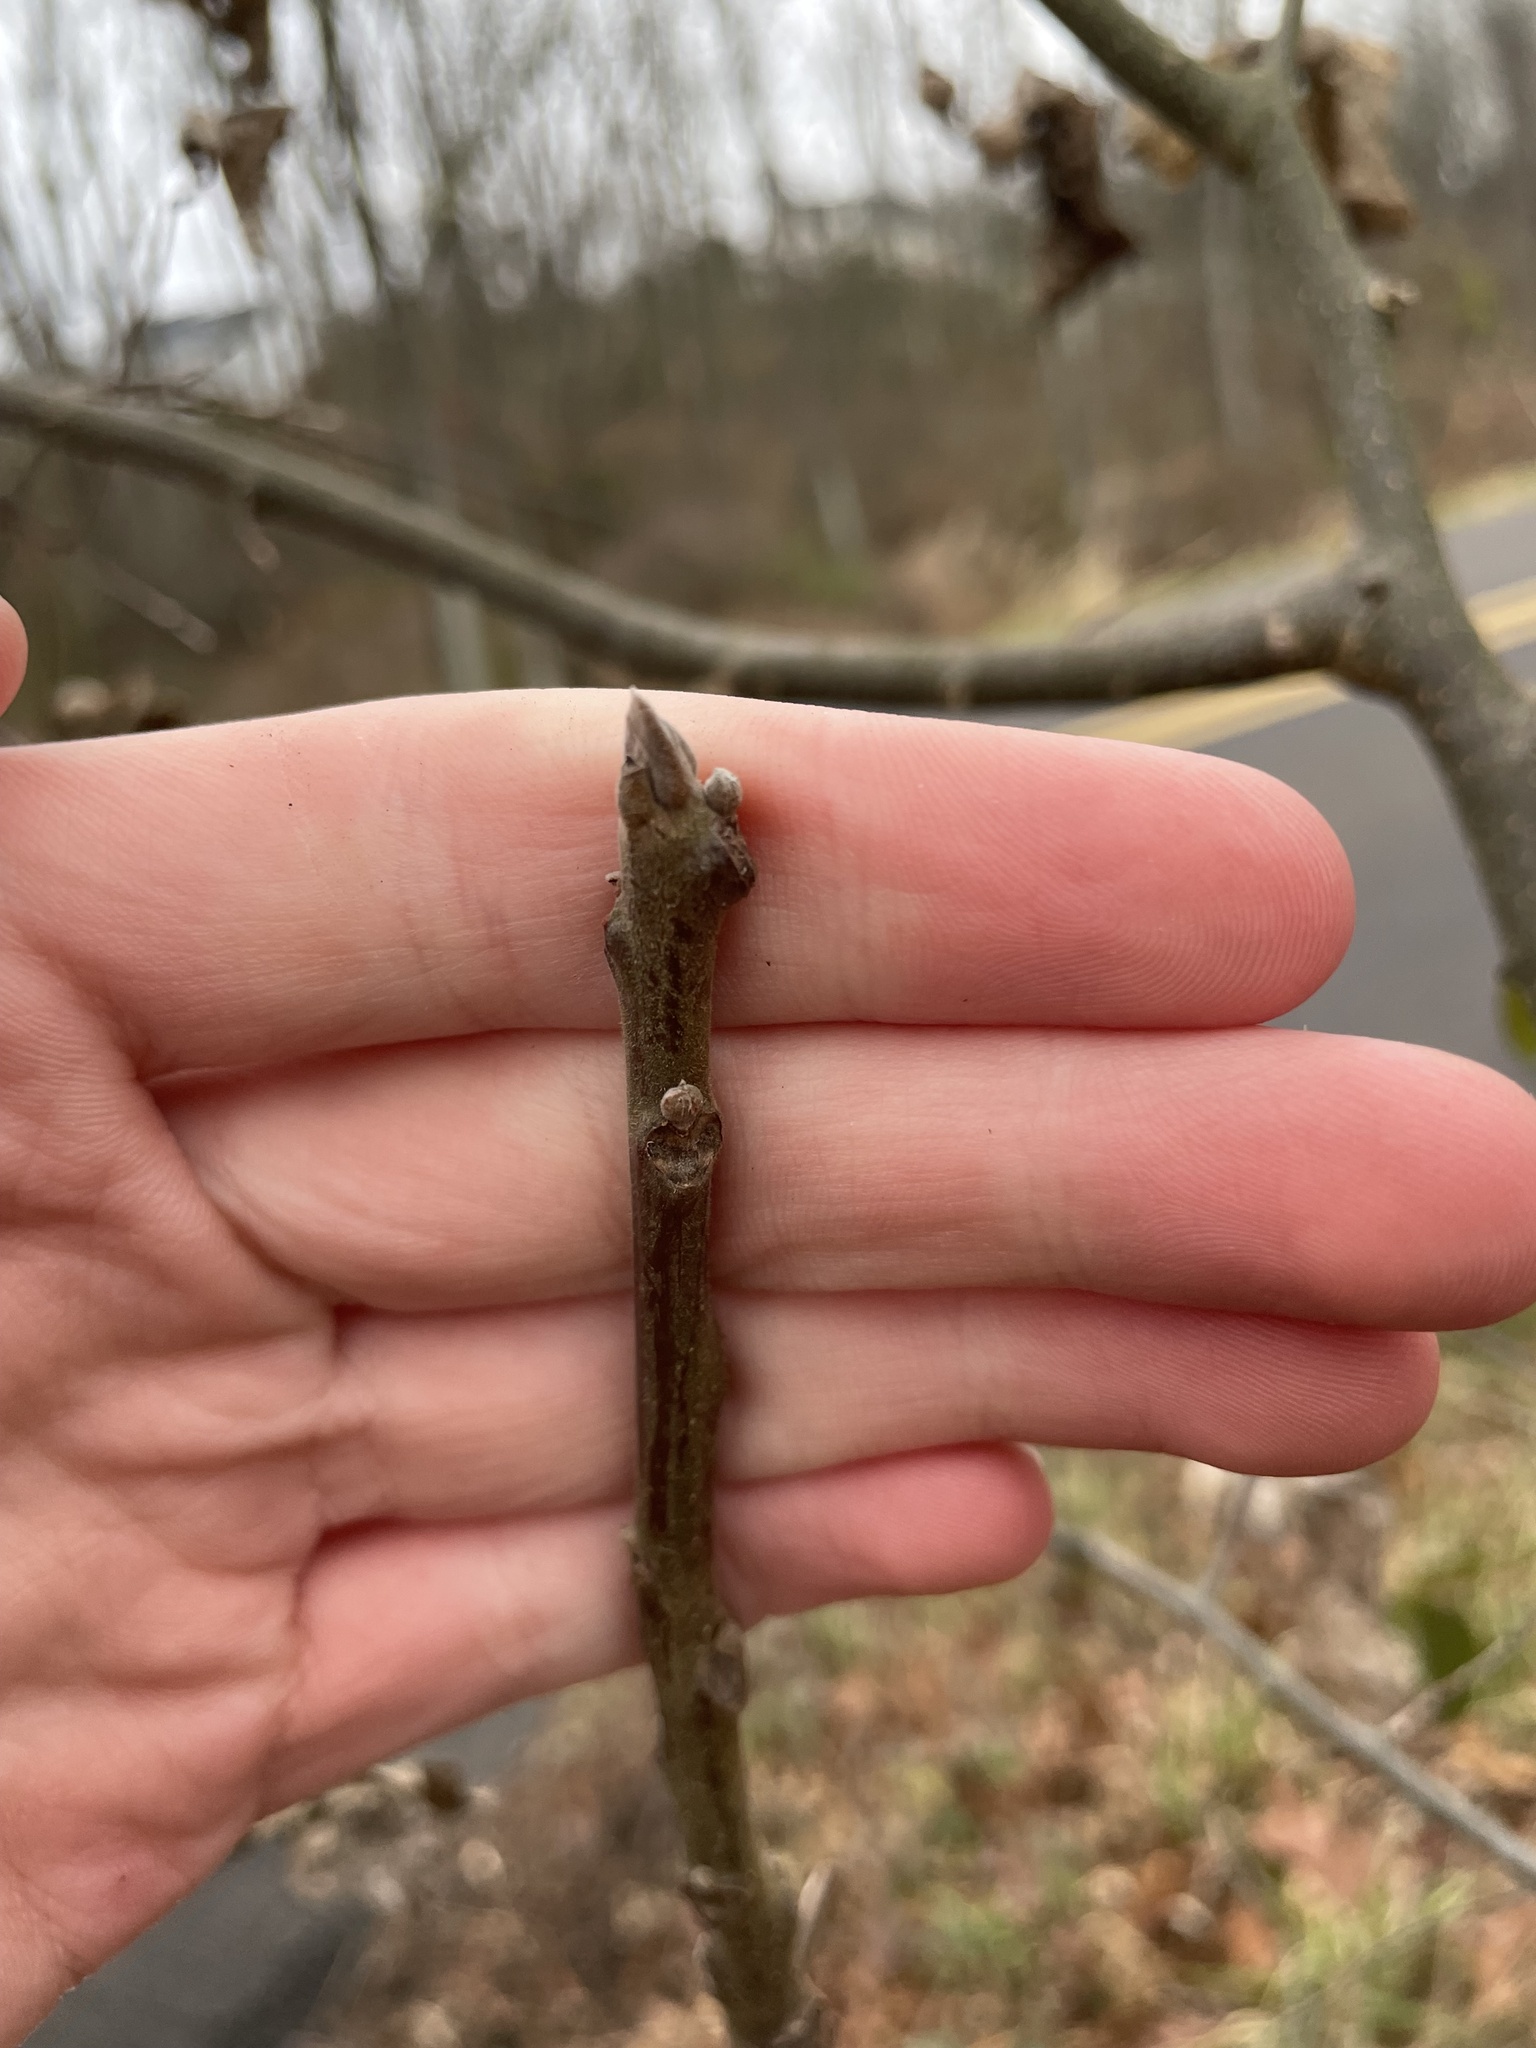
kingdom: Plantae
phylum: Tracheophyta
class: Magnoliopsida
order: Fagales
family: Juglandaceae
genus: Juglans
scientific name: Juglans nigra
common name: Black walnut
